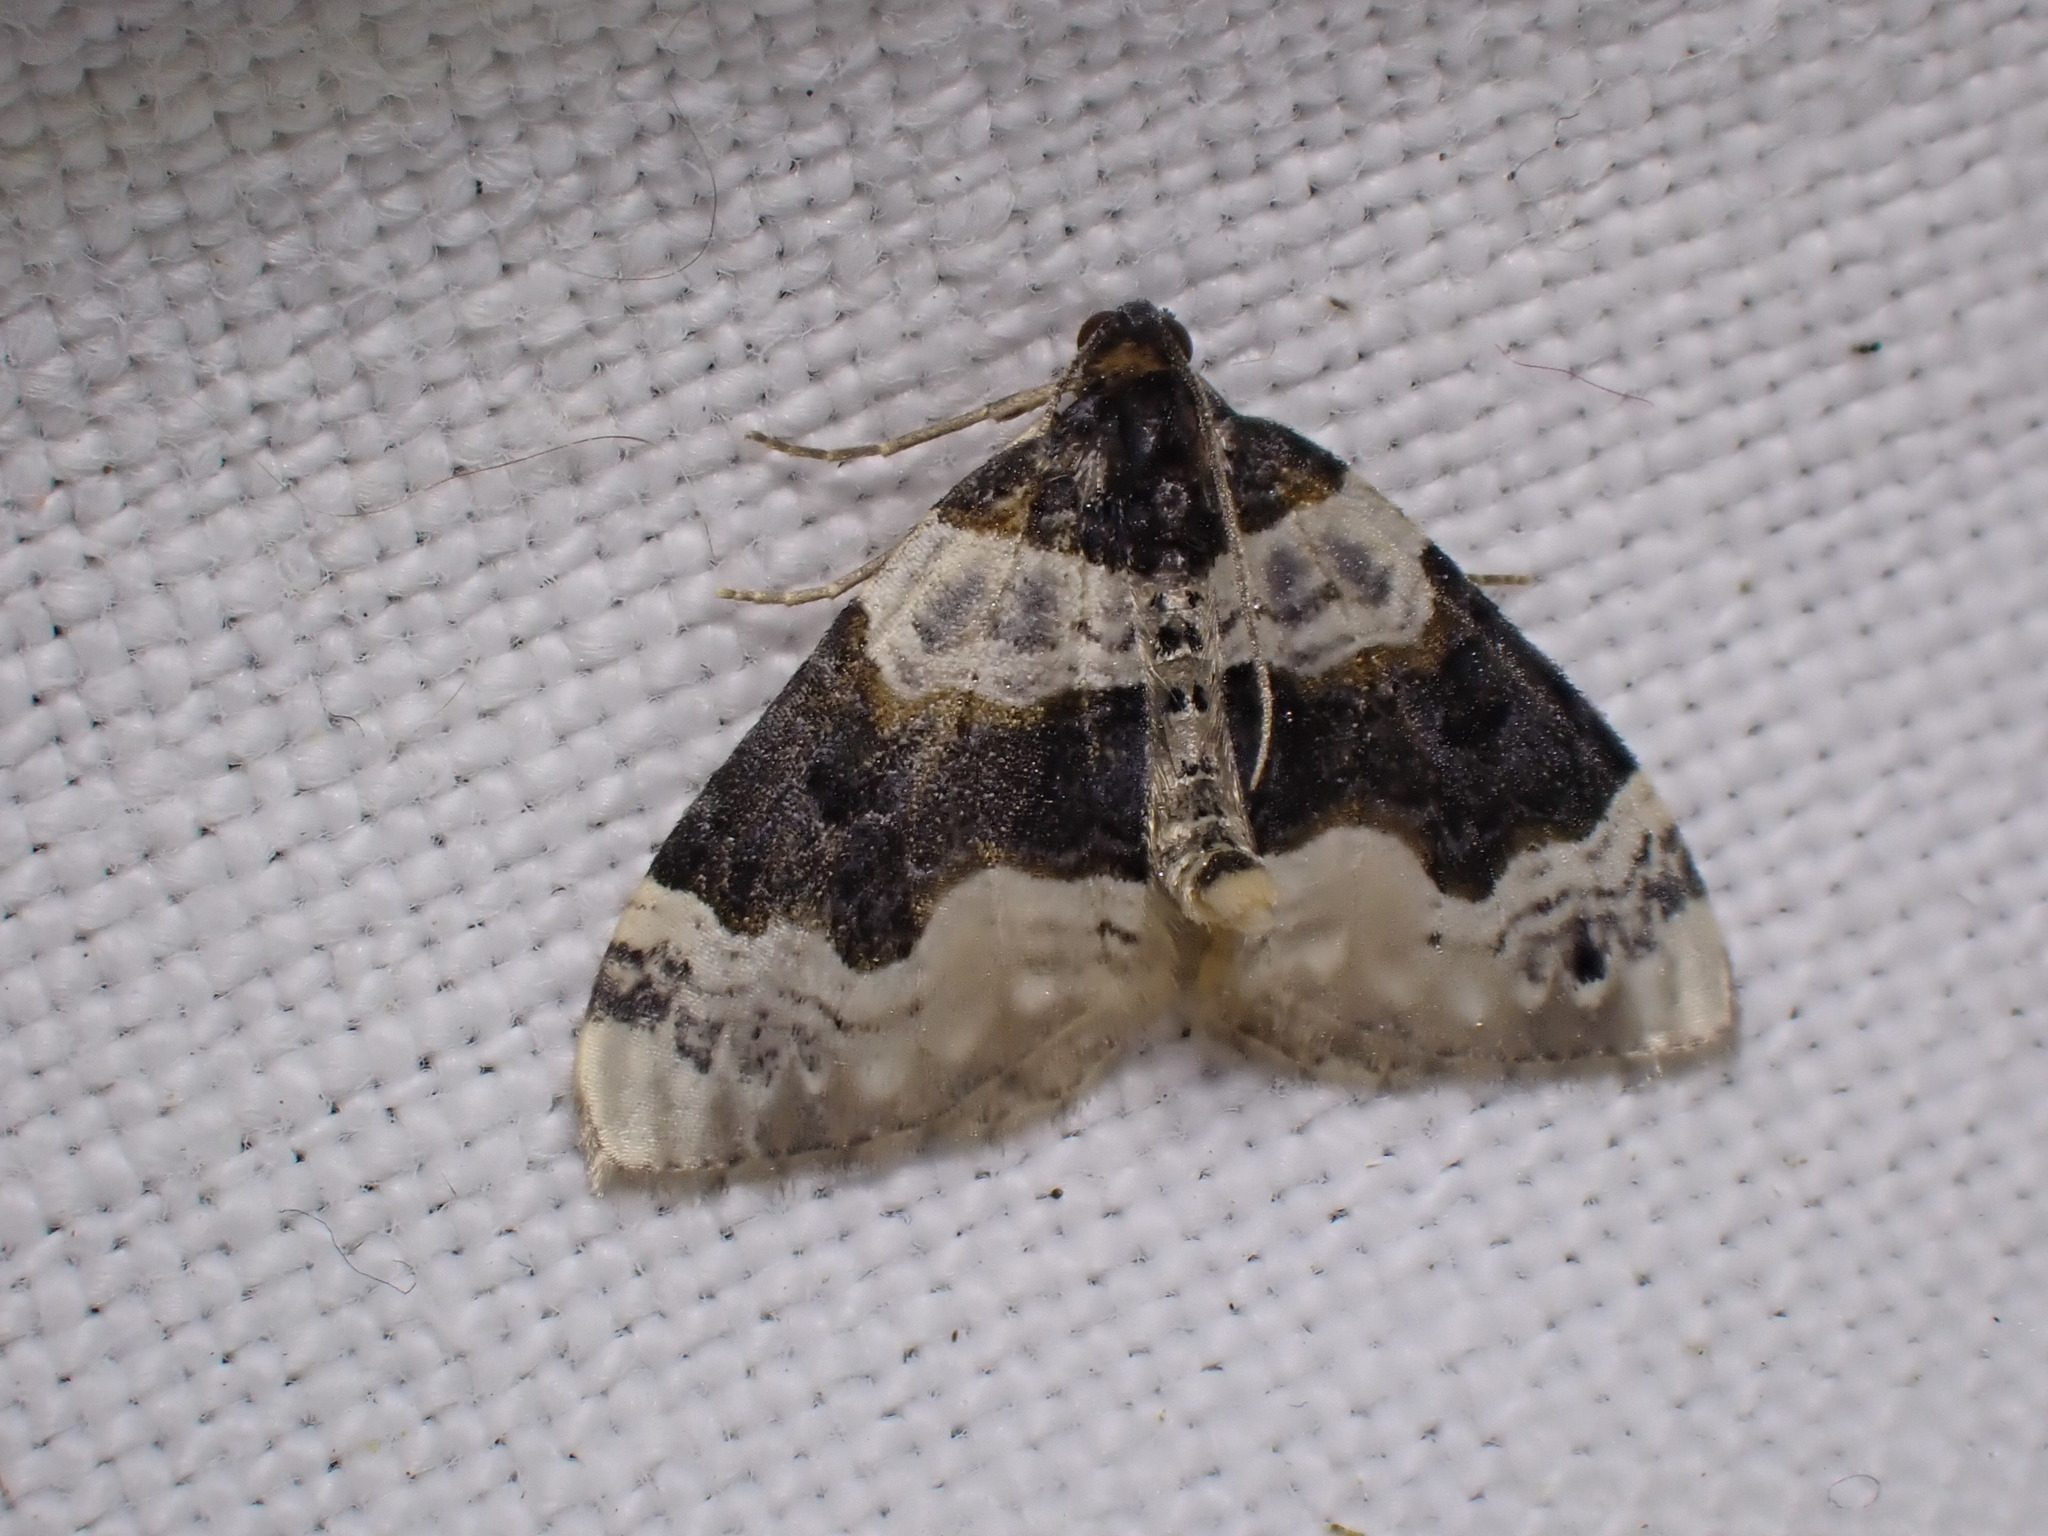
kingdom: Animalia
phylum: Arthropoda
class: Insecta
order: Lepidoptera
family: Geometridae
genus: Cosmorhoe
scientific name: Cosmorhoe ocellata
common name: Purple bar
